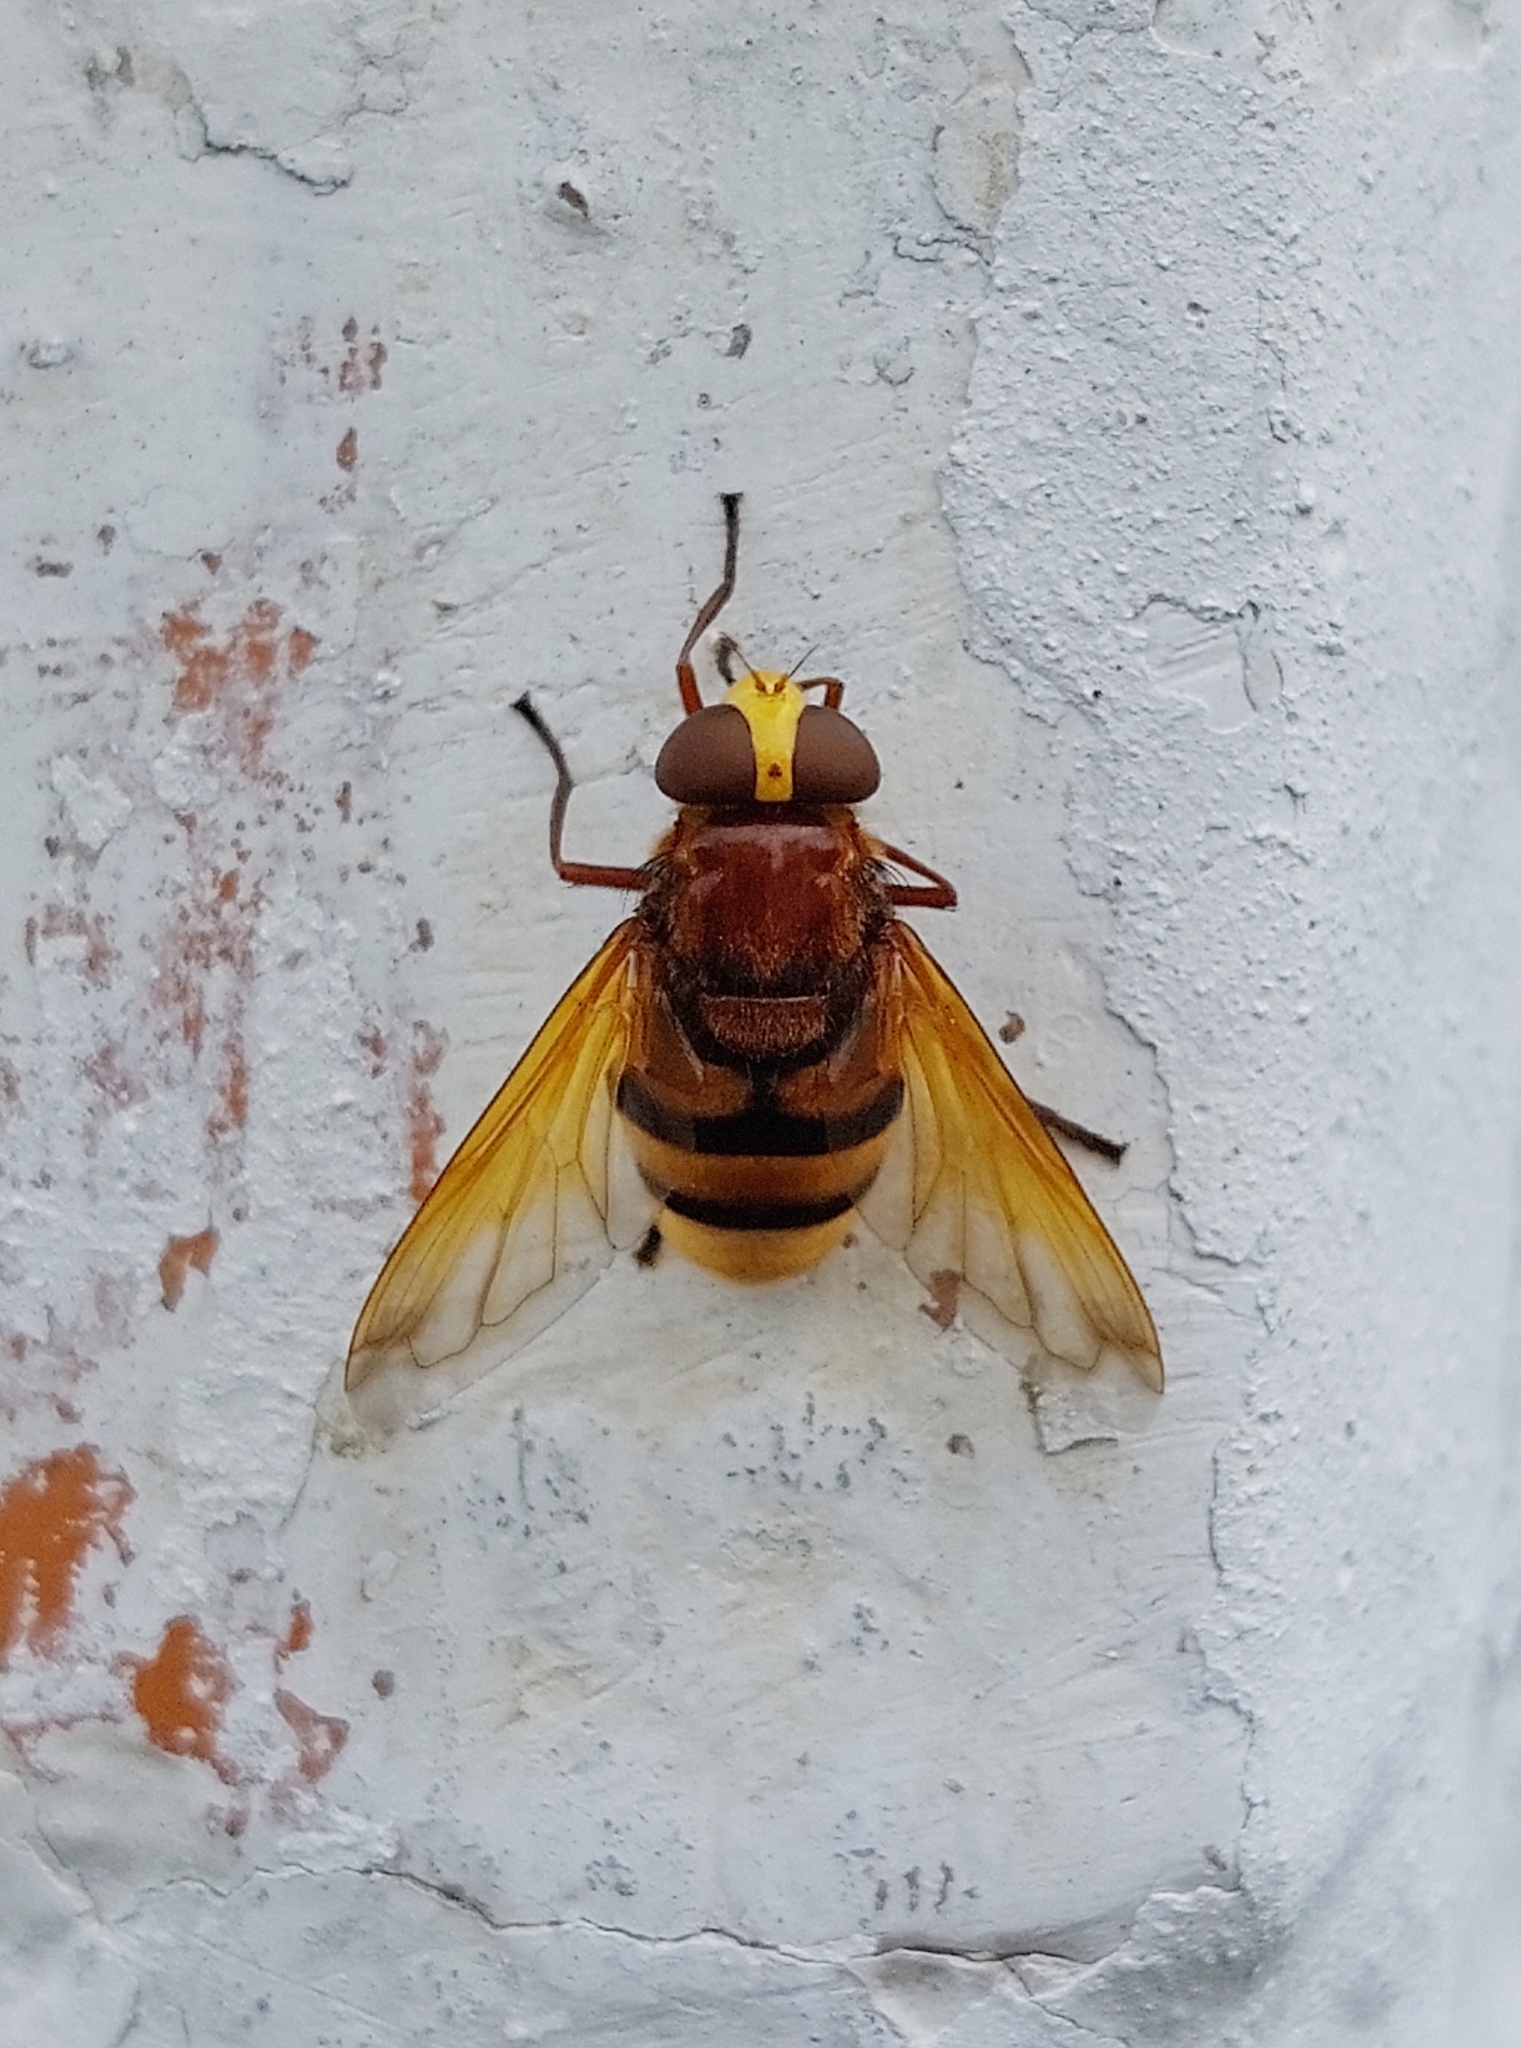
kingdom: Animalia
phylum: Arthropoda
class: Insecta
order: Diptera
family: Syrphidae
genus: Volucella
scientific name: Volucella zonaria
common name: Hornet hoverfly
